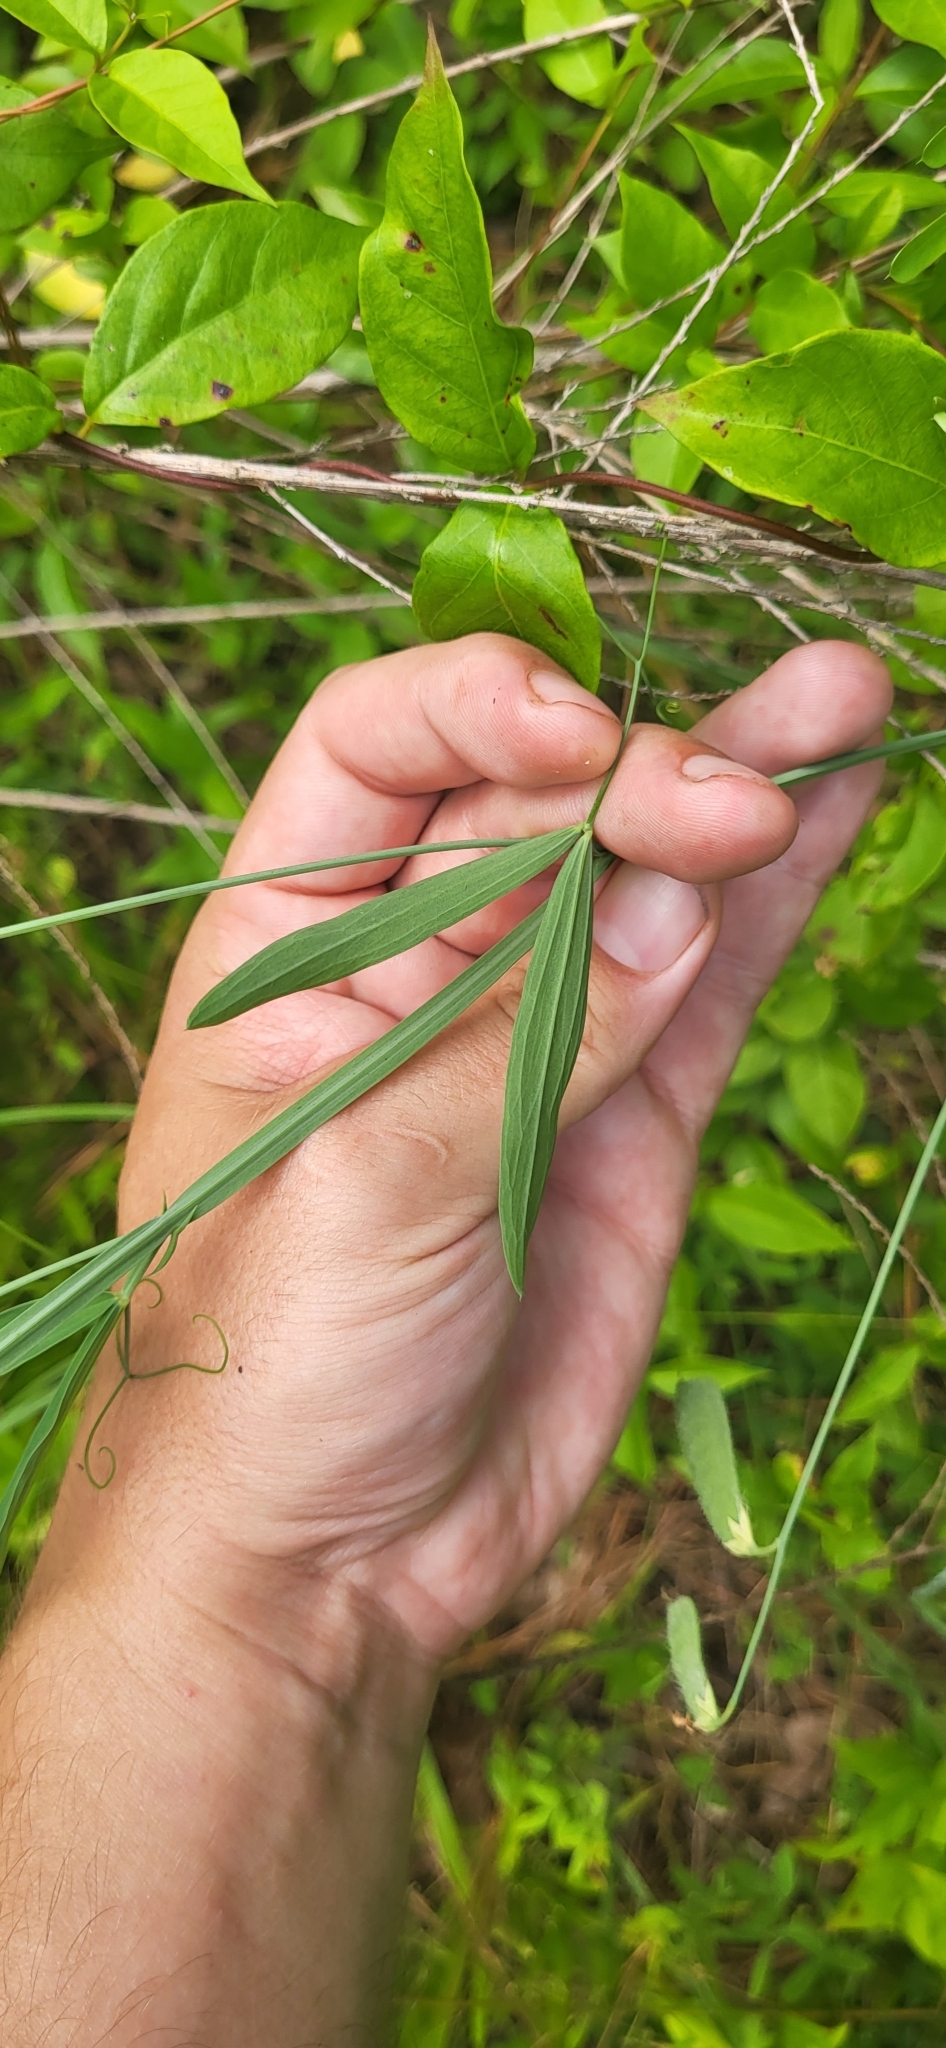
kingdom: Plantae
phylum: Tracheophyta
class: Magnoliopsida
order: Fabales
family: Fabaceae
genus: Lathyrus
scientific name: Lathyrus hirsutus
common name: Hairy vetchling
